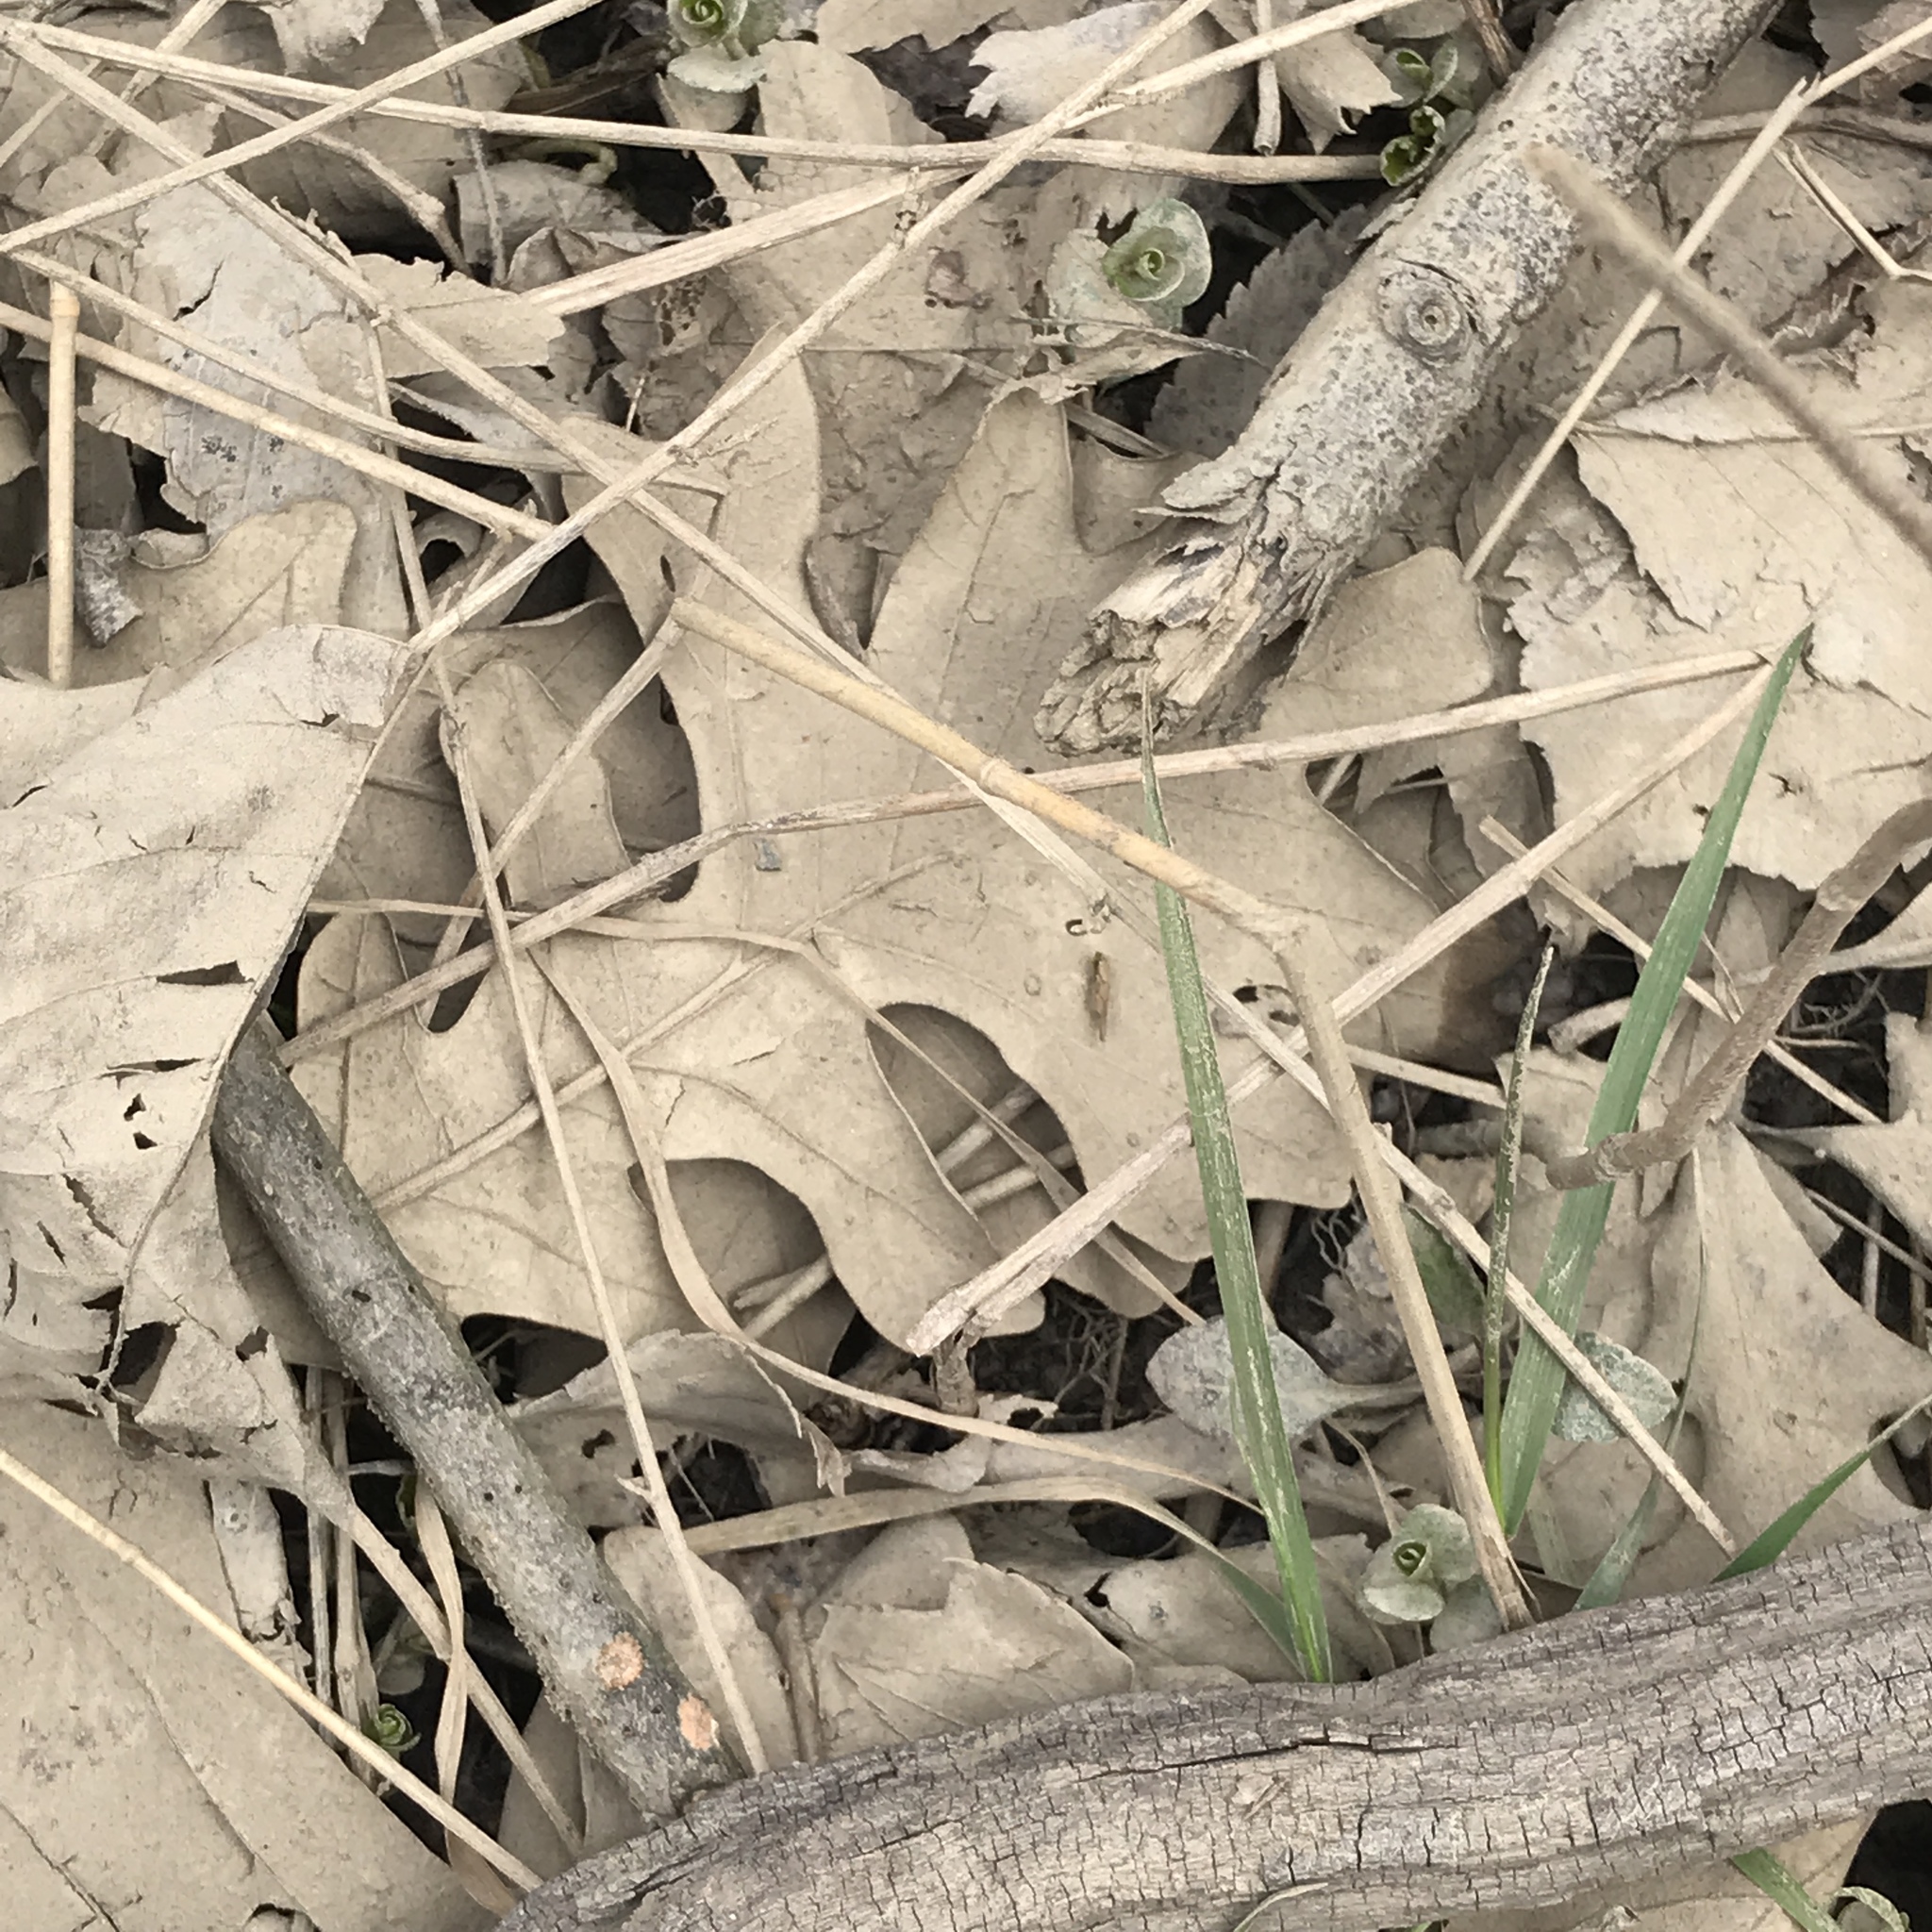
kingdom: Plantae
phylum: Tracheophyta
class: Magnoliopsida
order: Fagales
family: Fagaceae
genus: Quercus
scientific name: Quercus macrocarpa
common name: Bur oak
